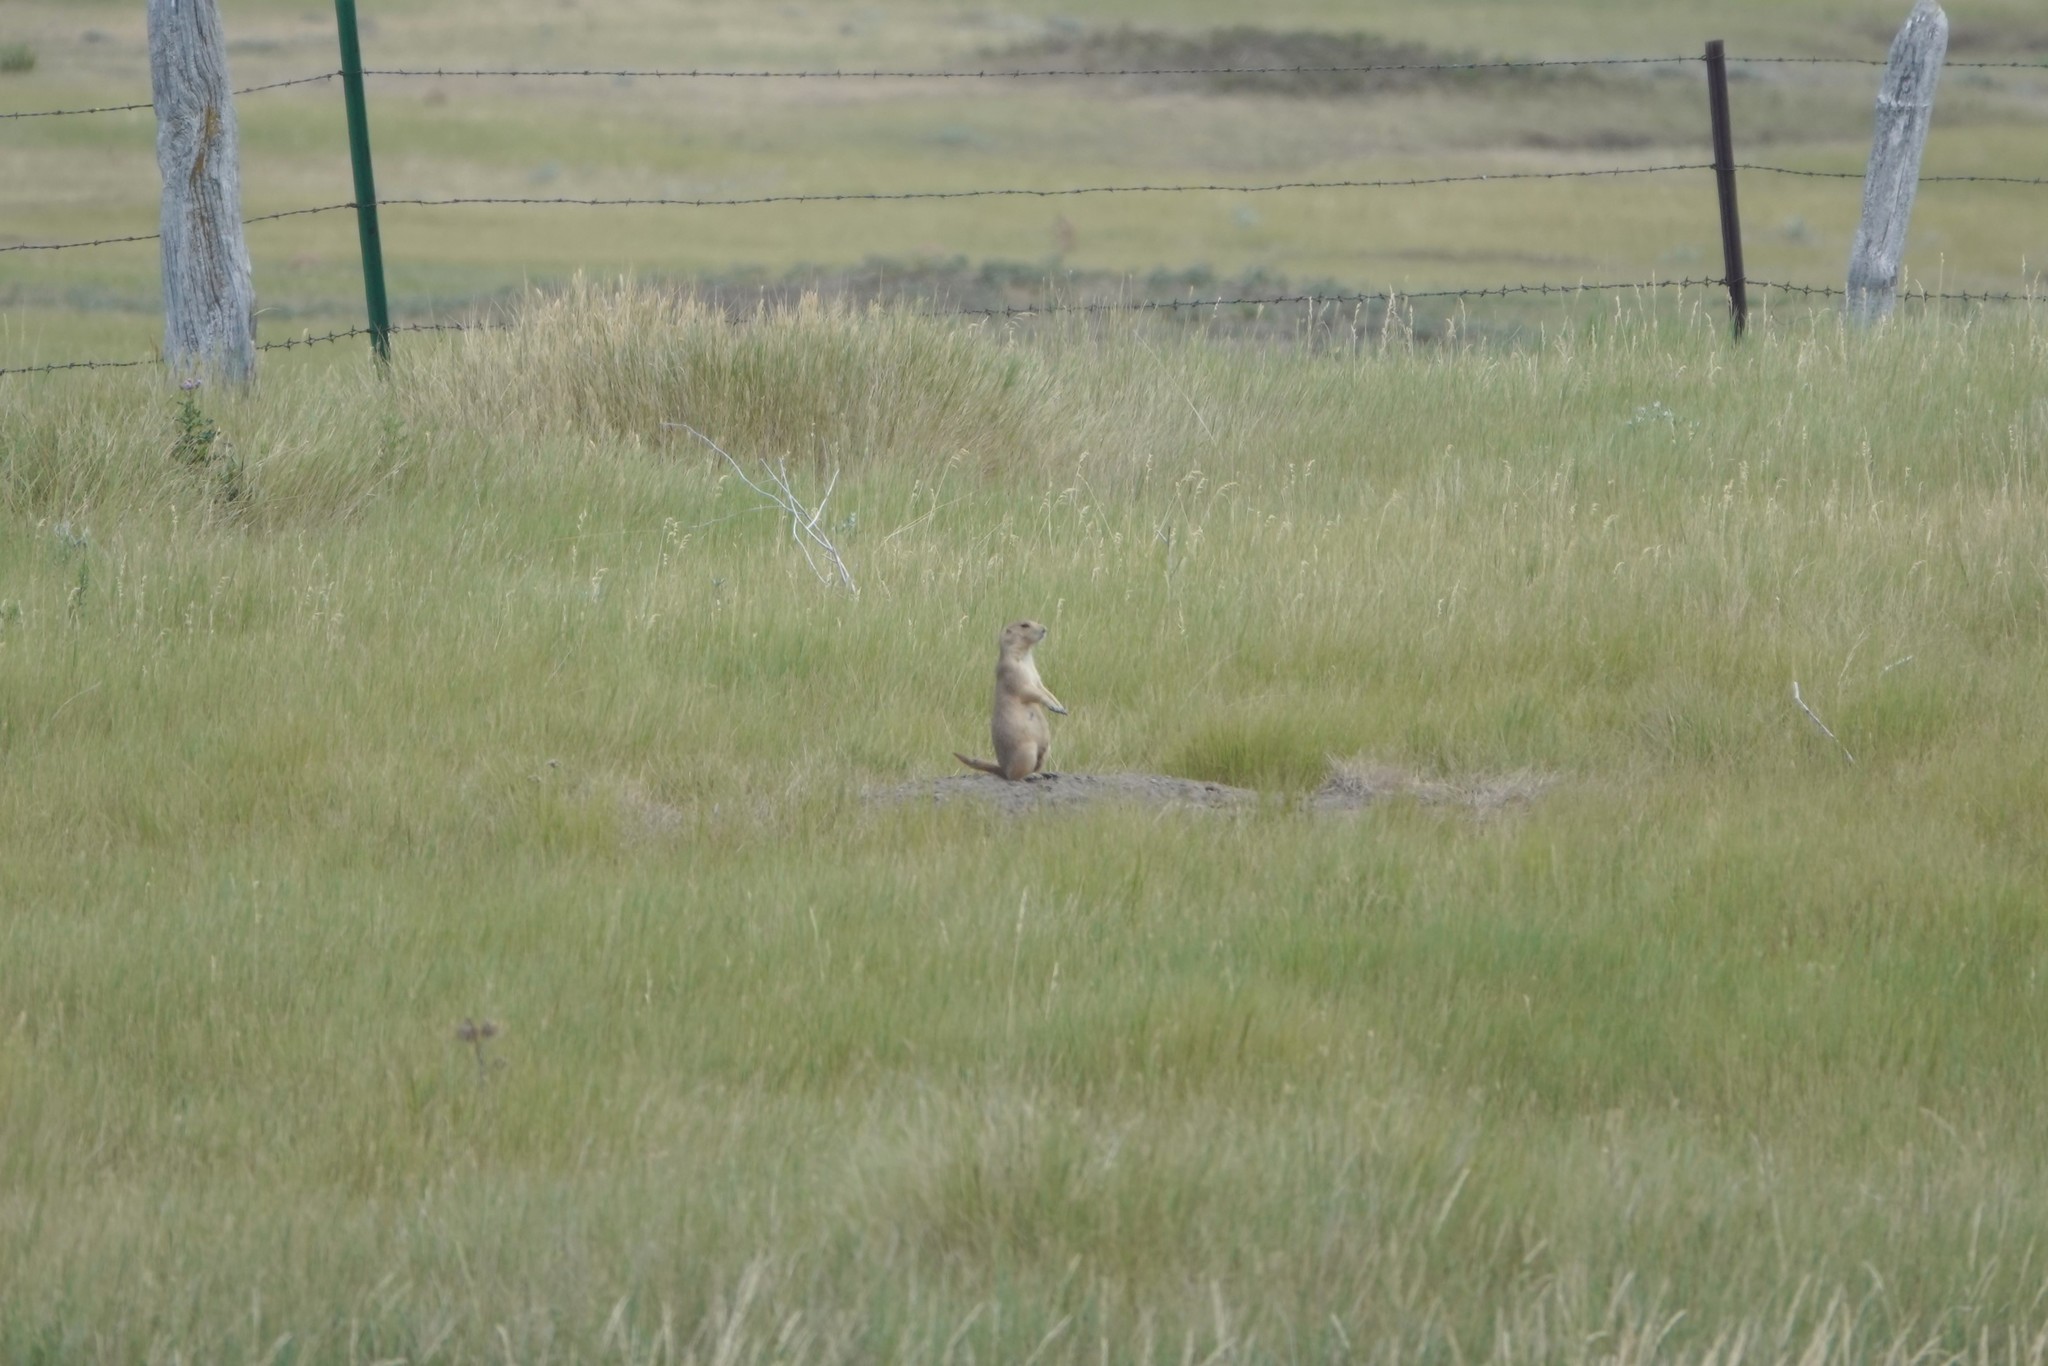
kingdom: Animalia
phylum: Chordata
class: Mammalia
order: Rodentia
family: Sciuridae
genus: Cynomys
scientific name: Cynomys ludovicianus
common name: Black-tailed prairie dog
